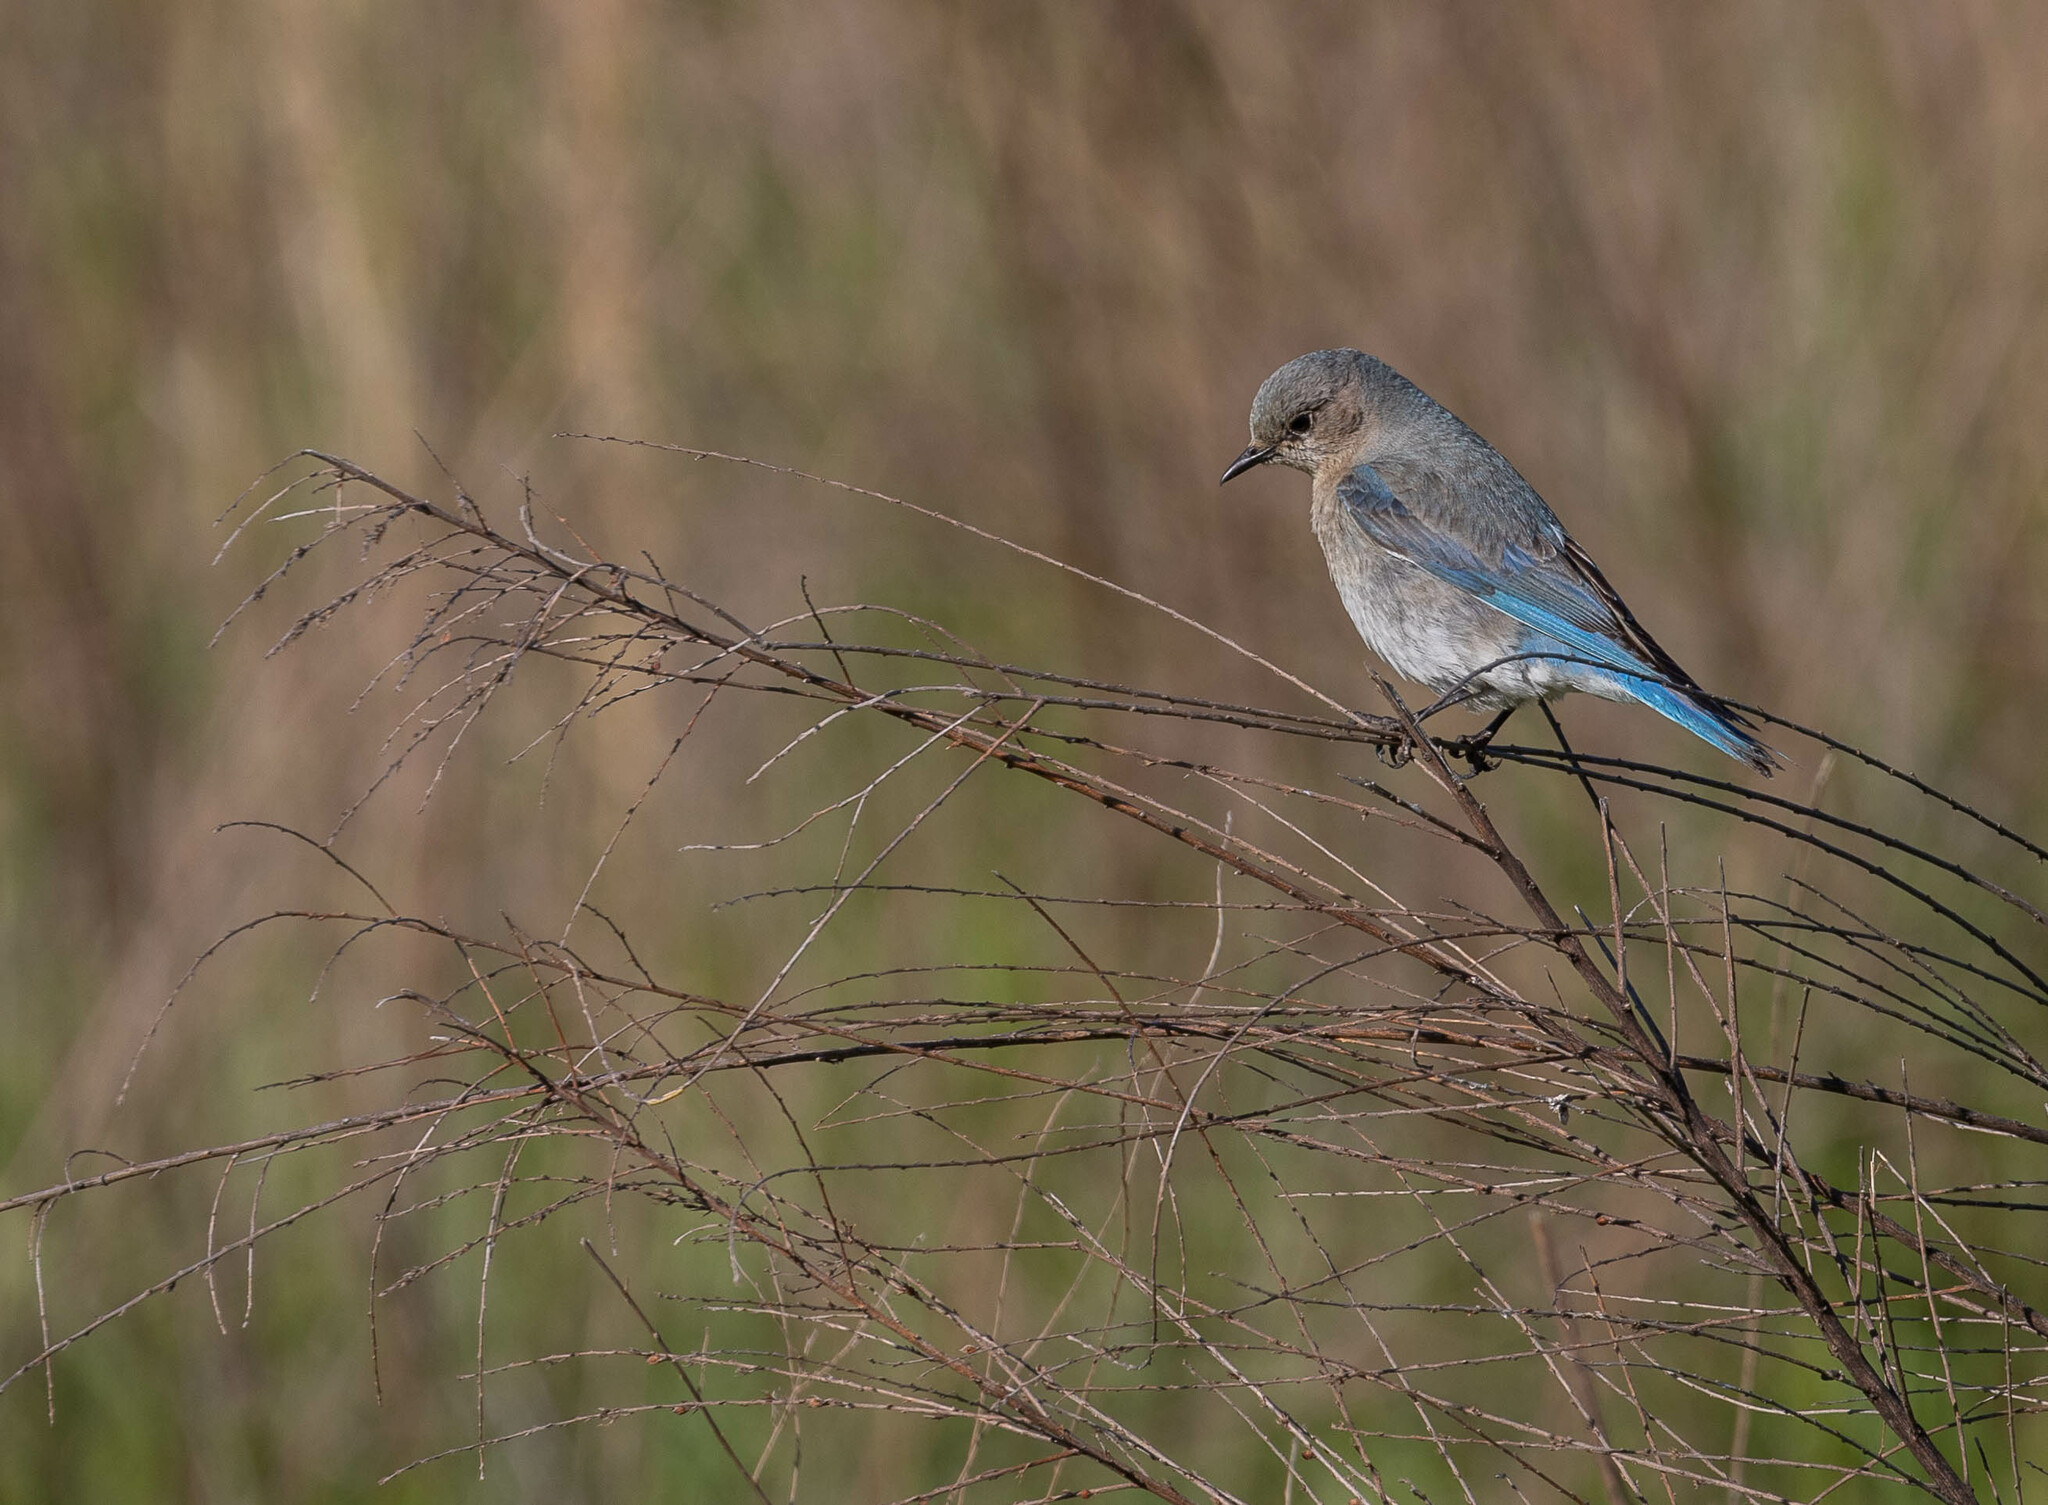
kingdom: Animalia
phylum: Chordata
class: Aves
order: Passeriformes
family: Turdidae
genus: Sialia
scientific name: Sialia currucoides
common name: Mountain bluebird
